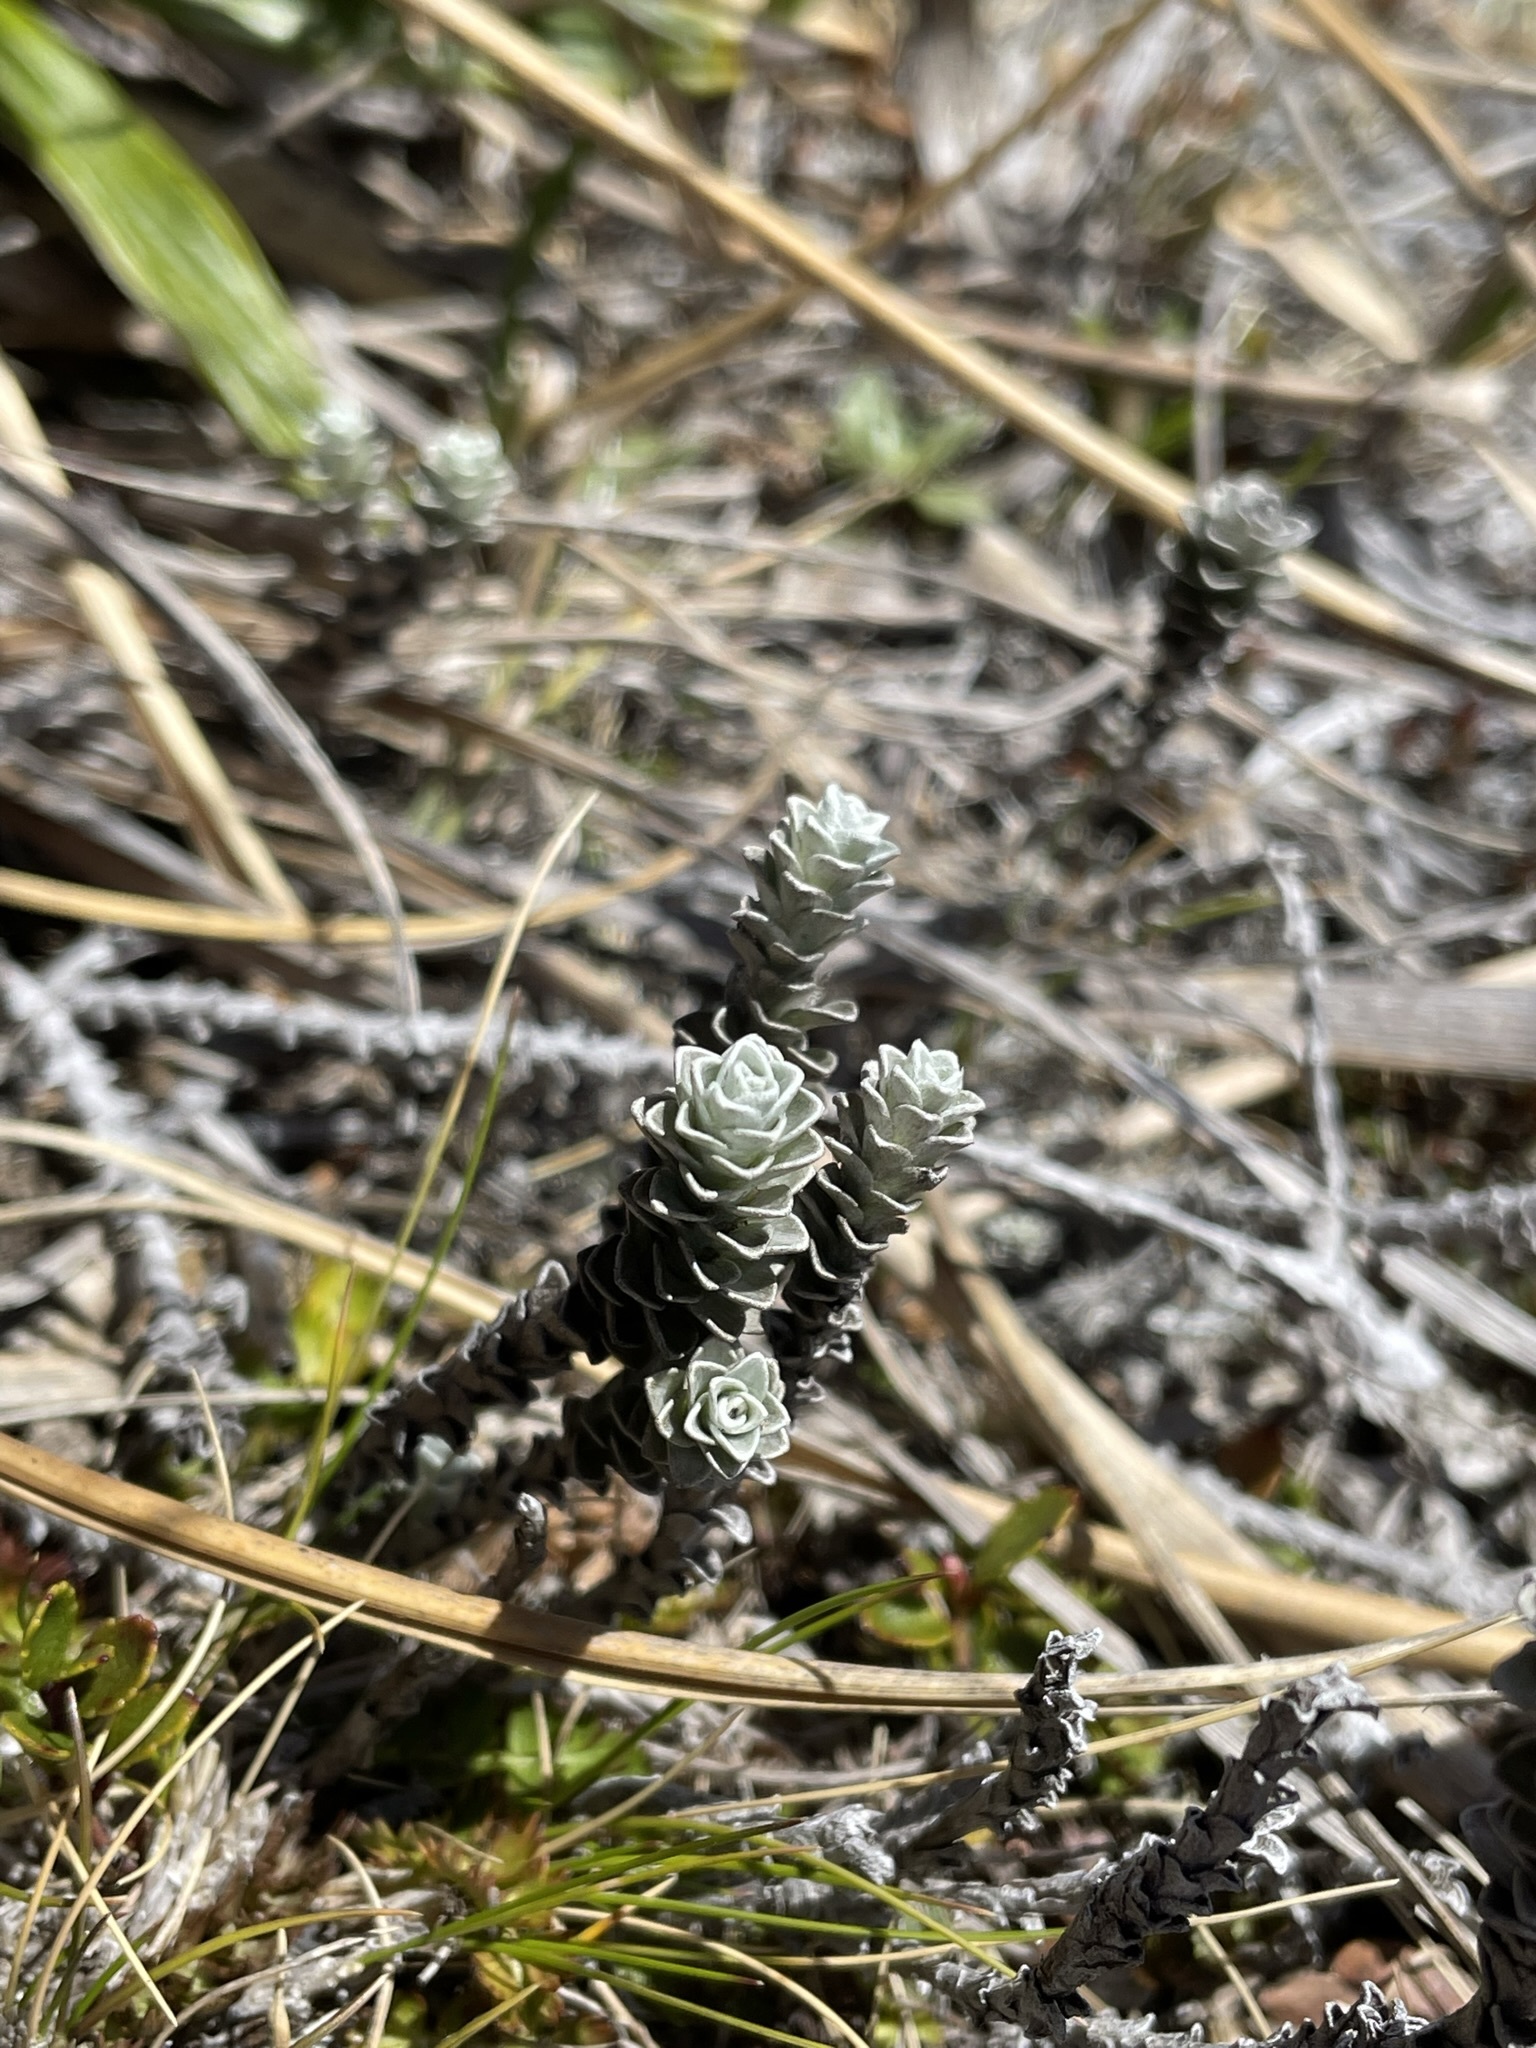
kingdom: Plantae
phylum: Tracheophyta
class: Magnoliopsida
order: Asterales
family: Asteraceae
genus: Leucogenes
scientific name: Leucogenes grandiceps
